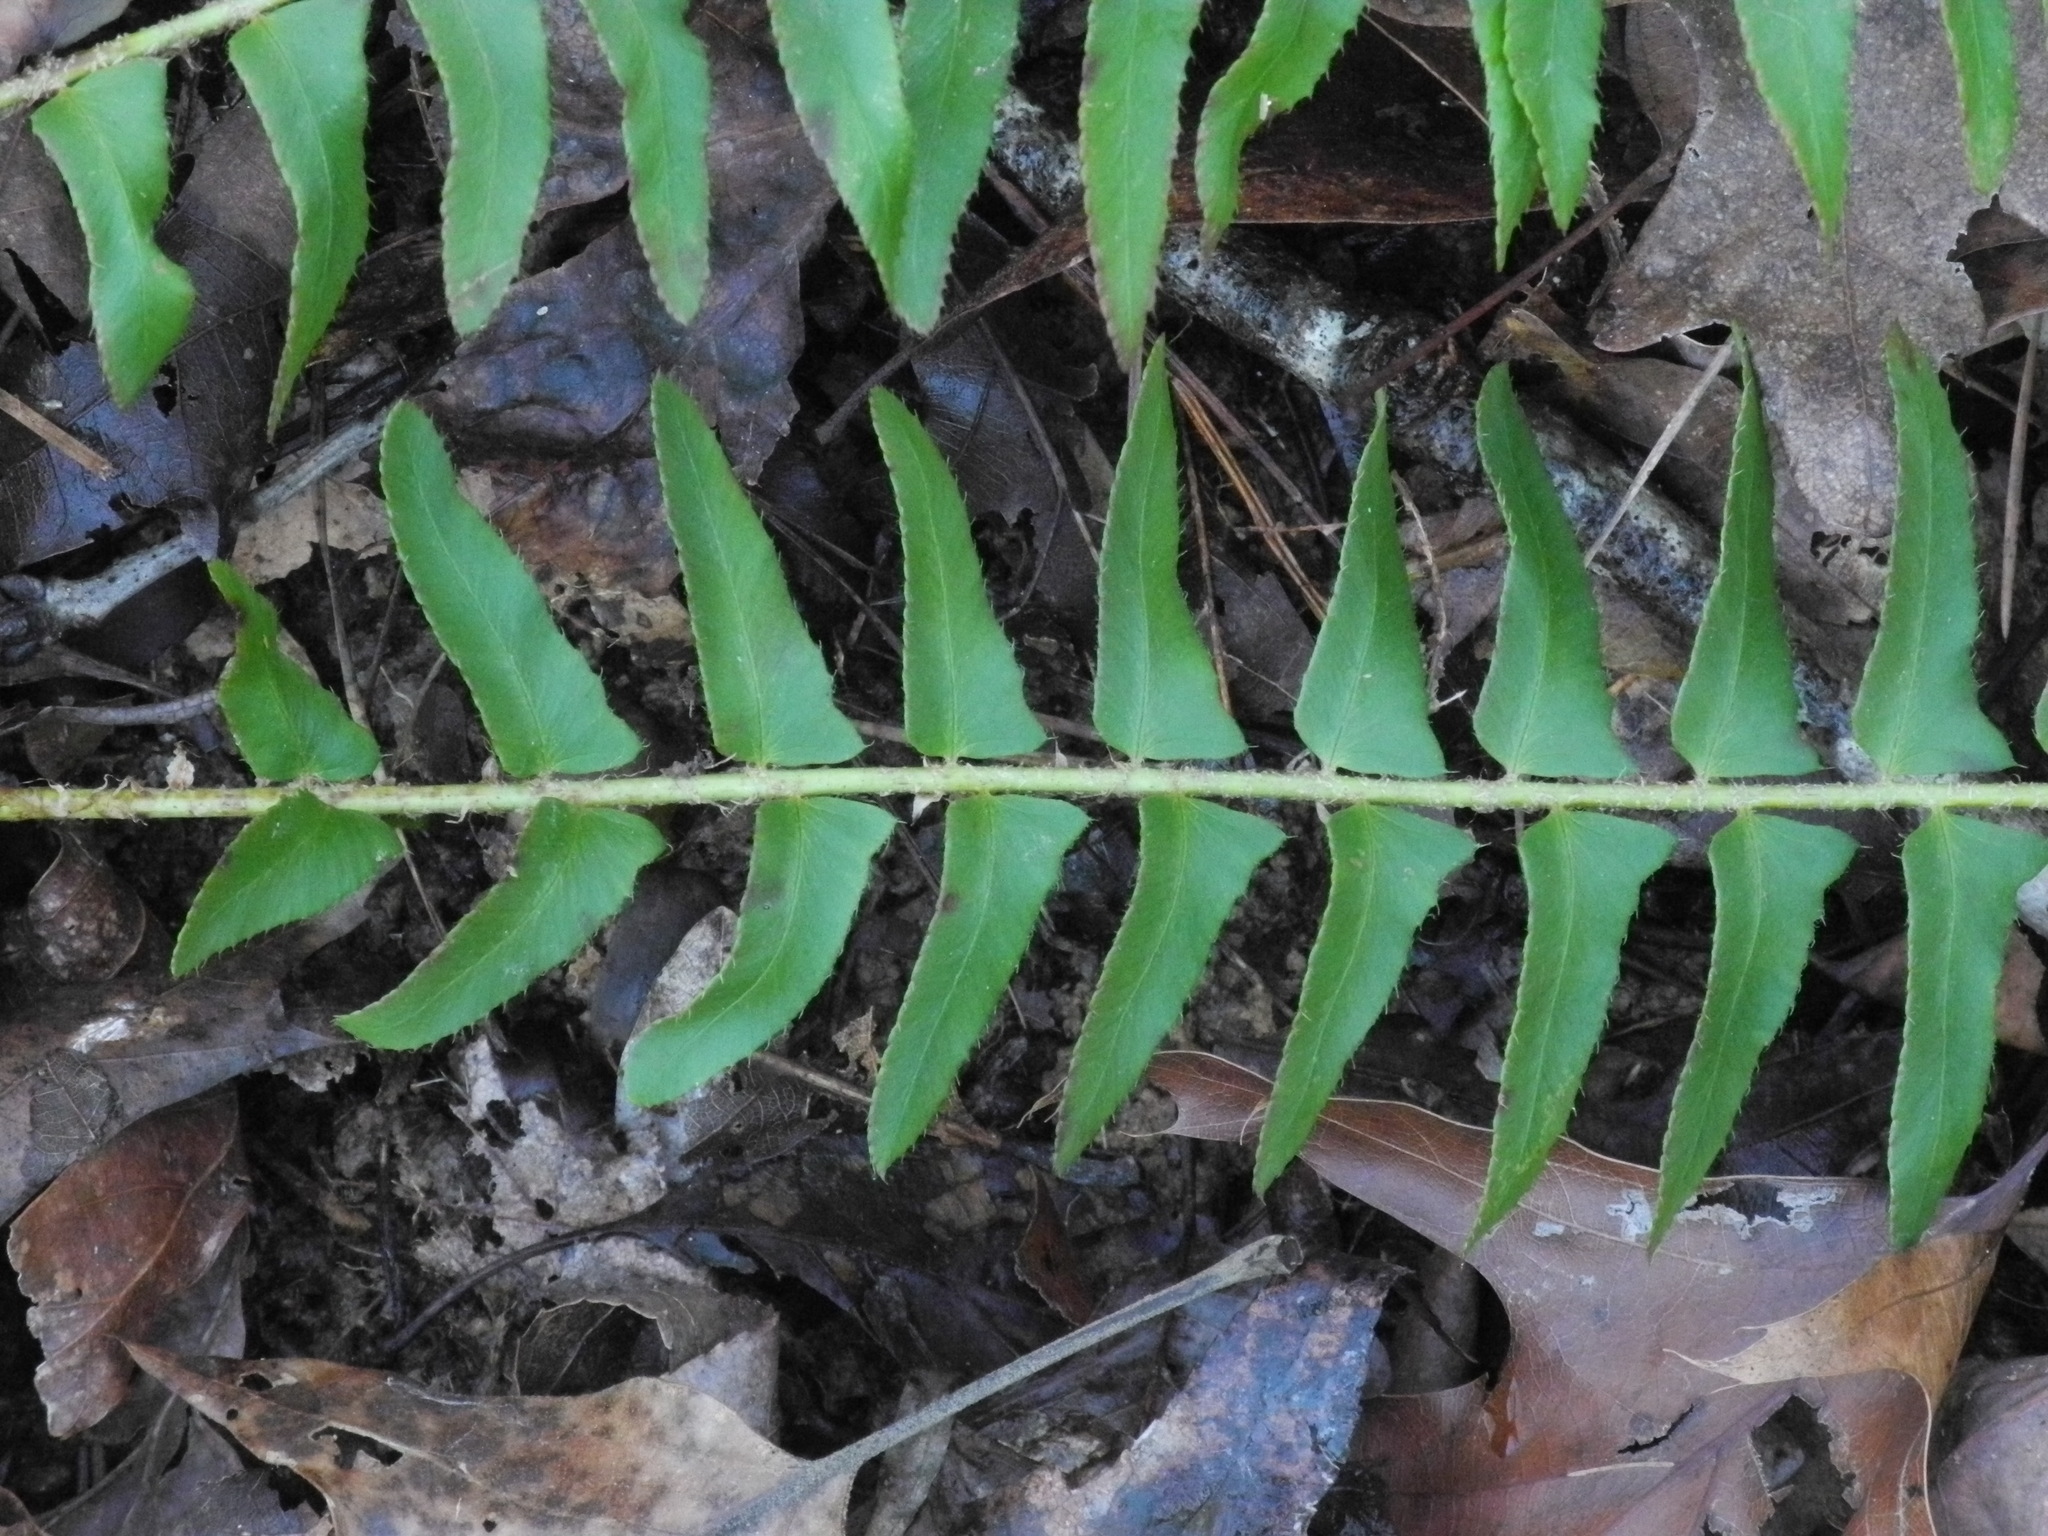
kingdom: Plantae
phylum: Tracheophyta
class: Polypodiopsida
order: Polypodiales
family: Dryopteridaceae
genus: Polystichum
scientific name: Polystichum acrostichoides
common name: Christmas fern
